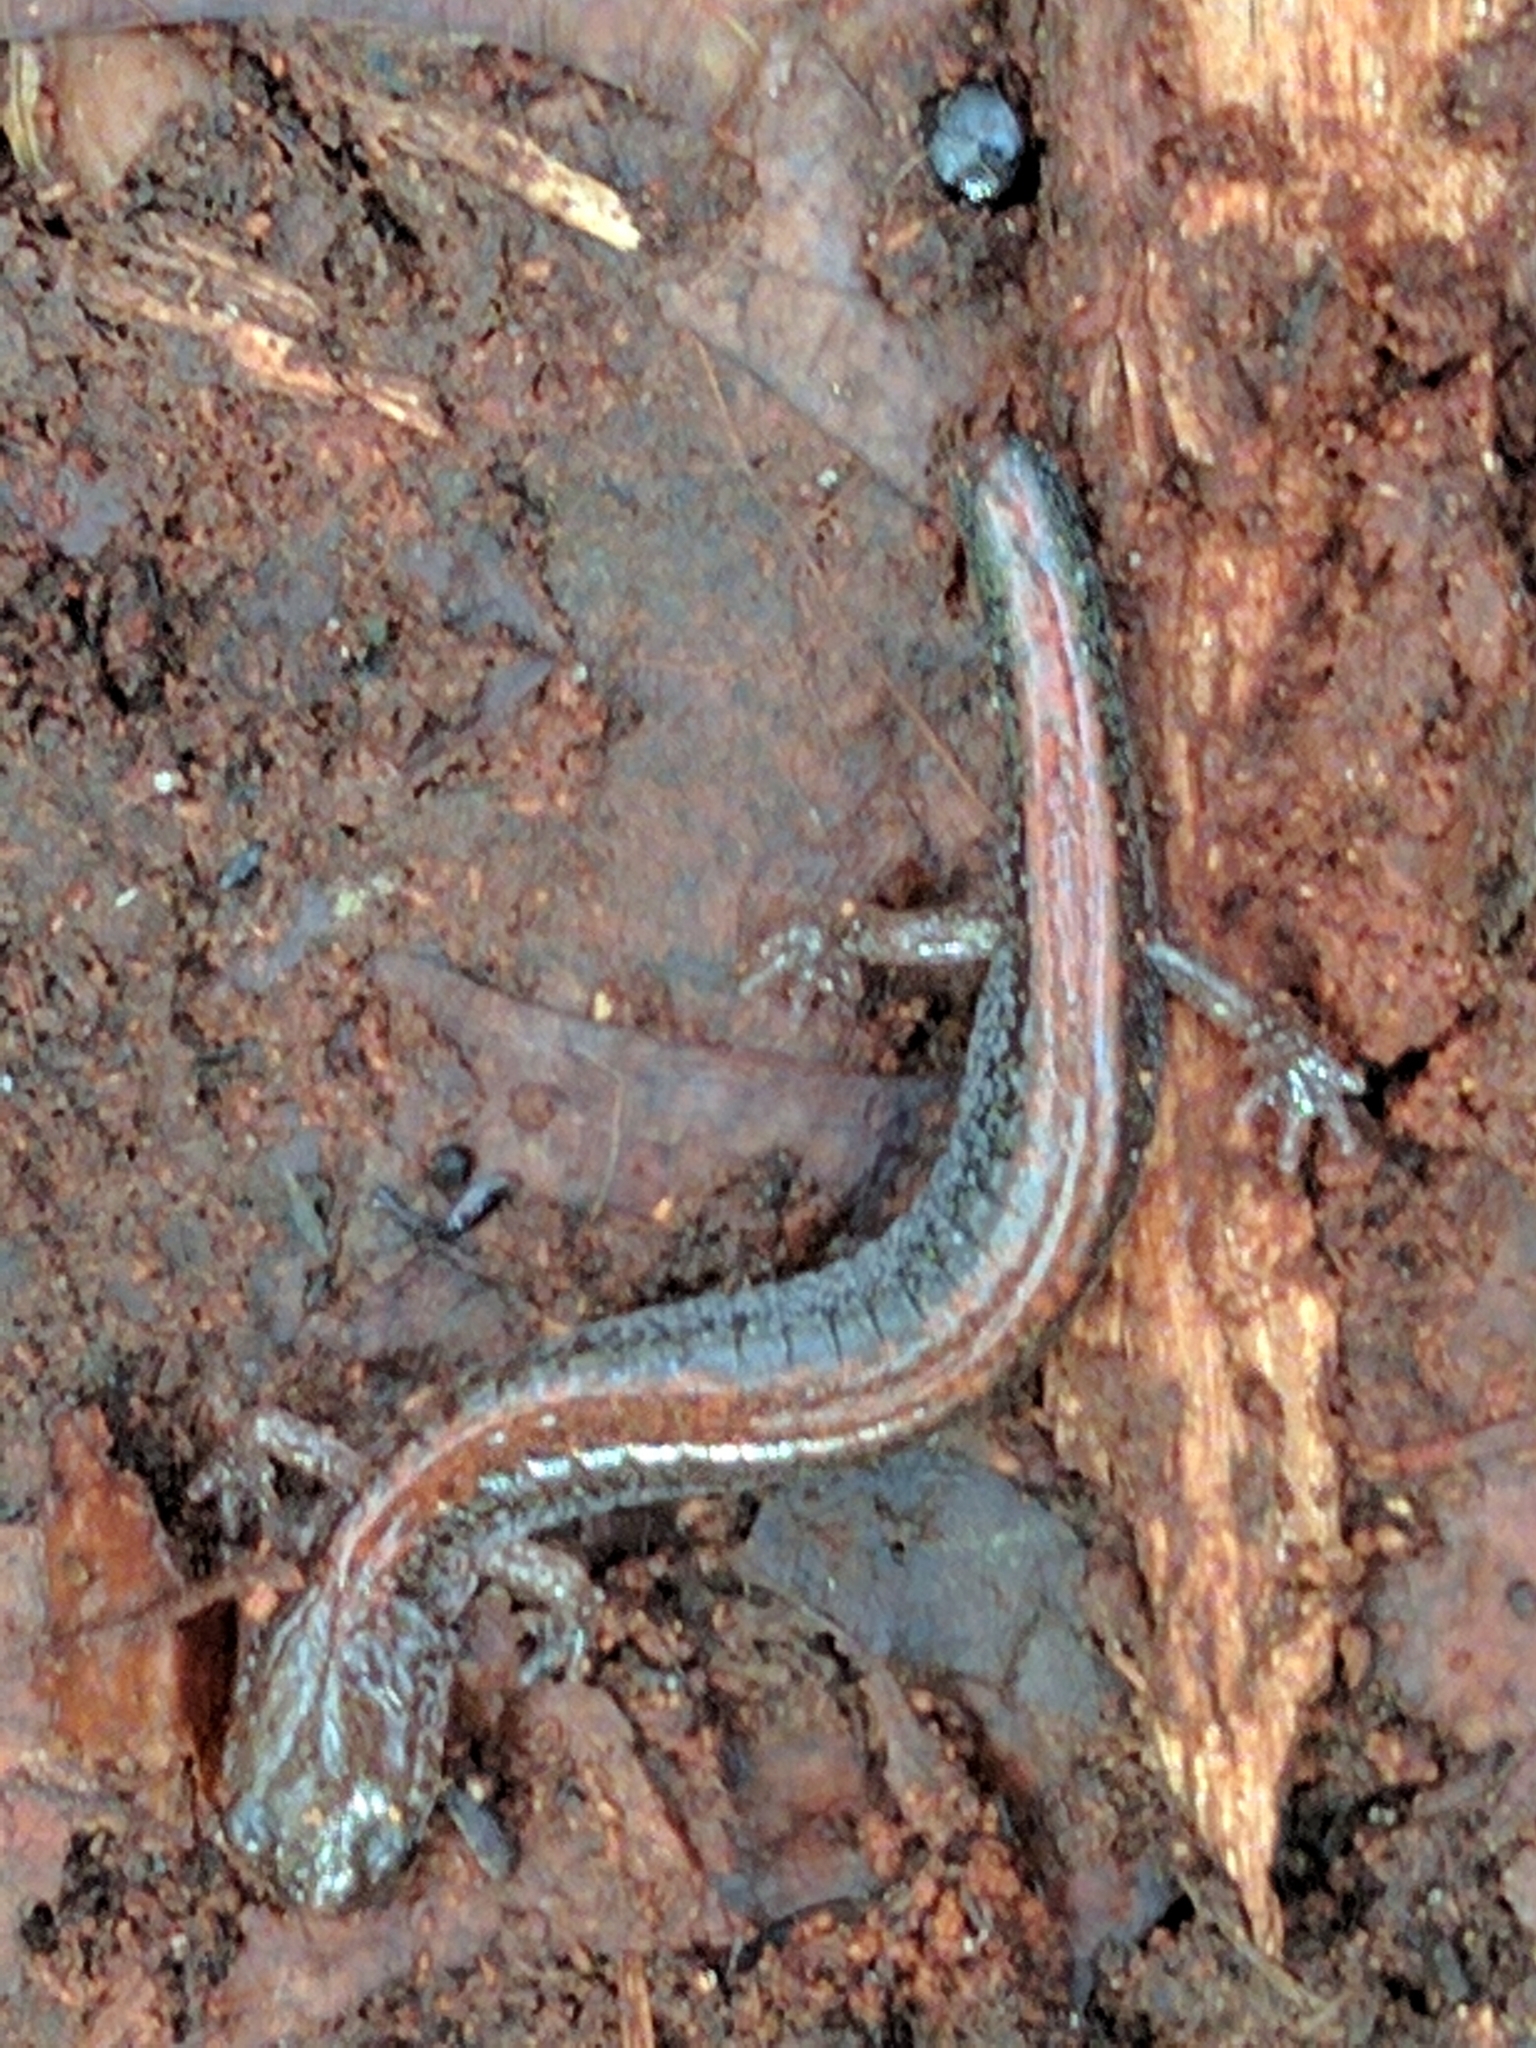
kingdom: Animalia
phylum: Chordata
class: Amphibia
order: Caudata
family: Plethodontidae
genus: Plethodon
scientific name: Plethodon cinereus
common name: Redback salamander
